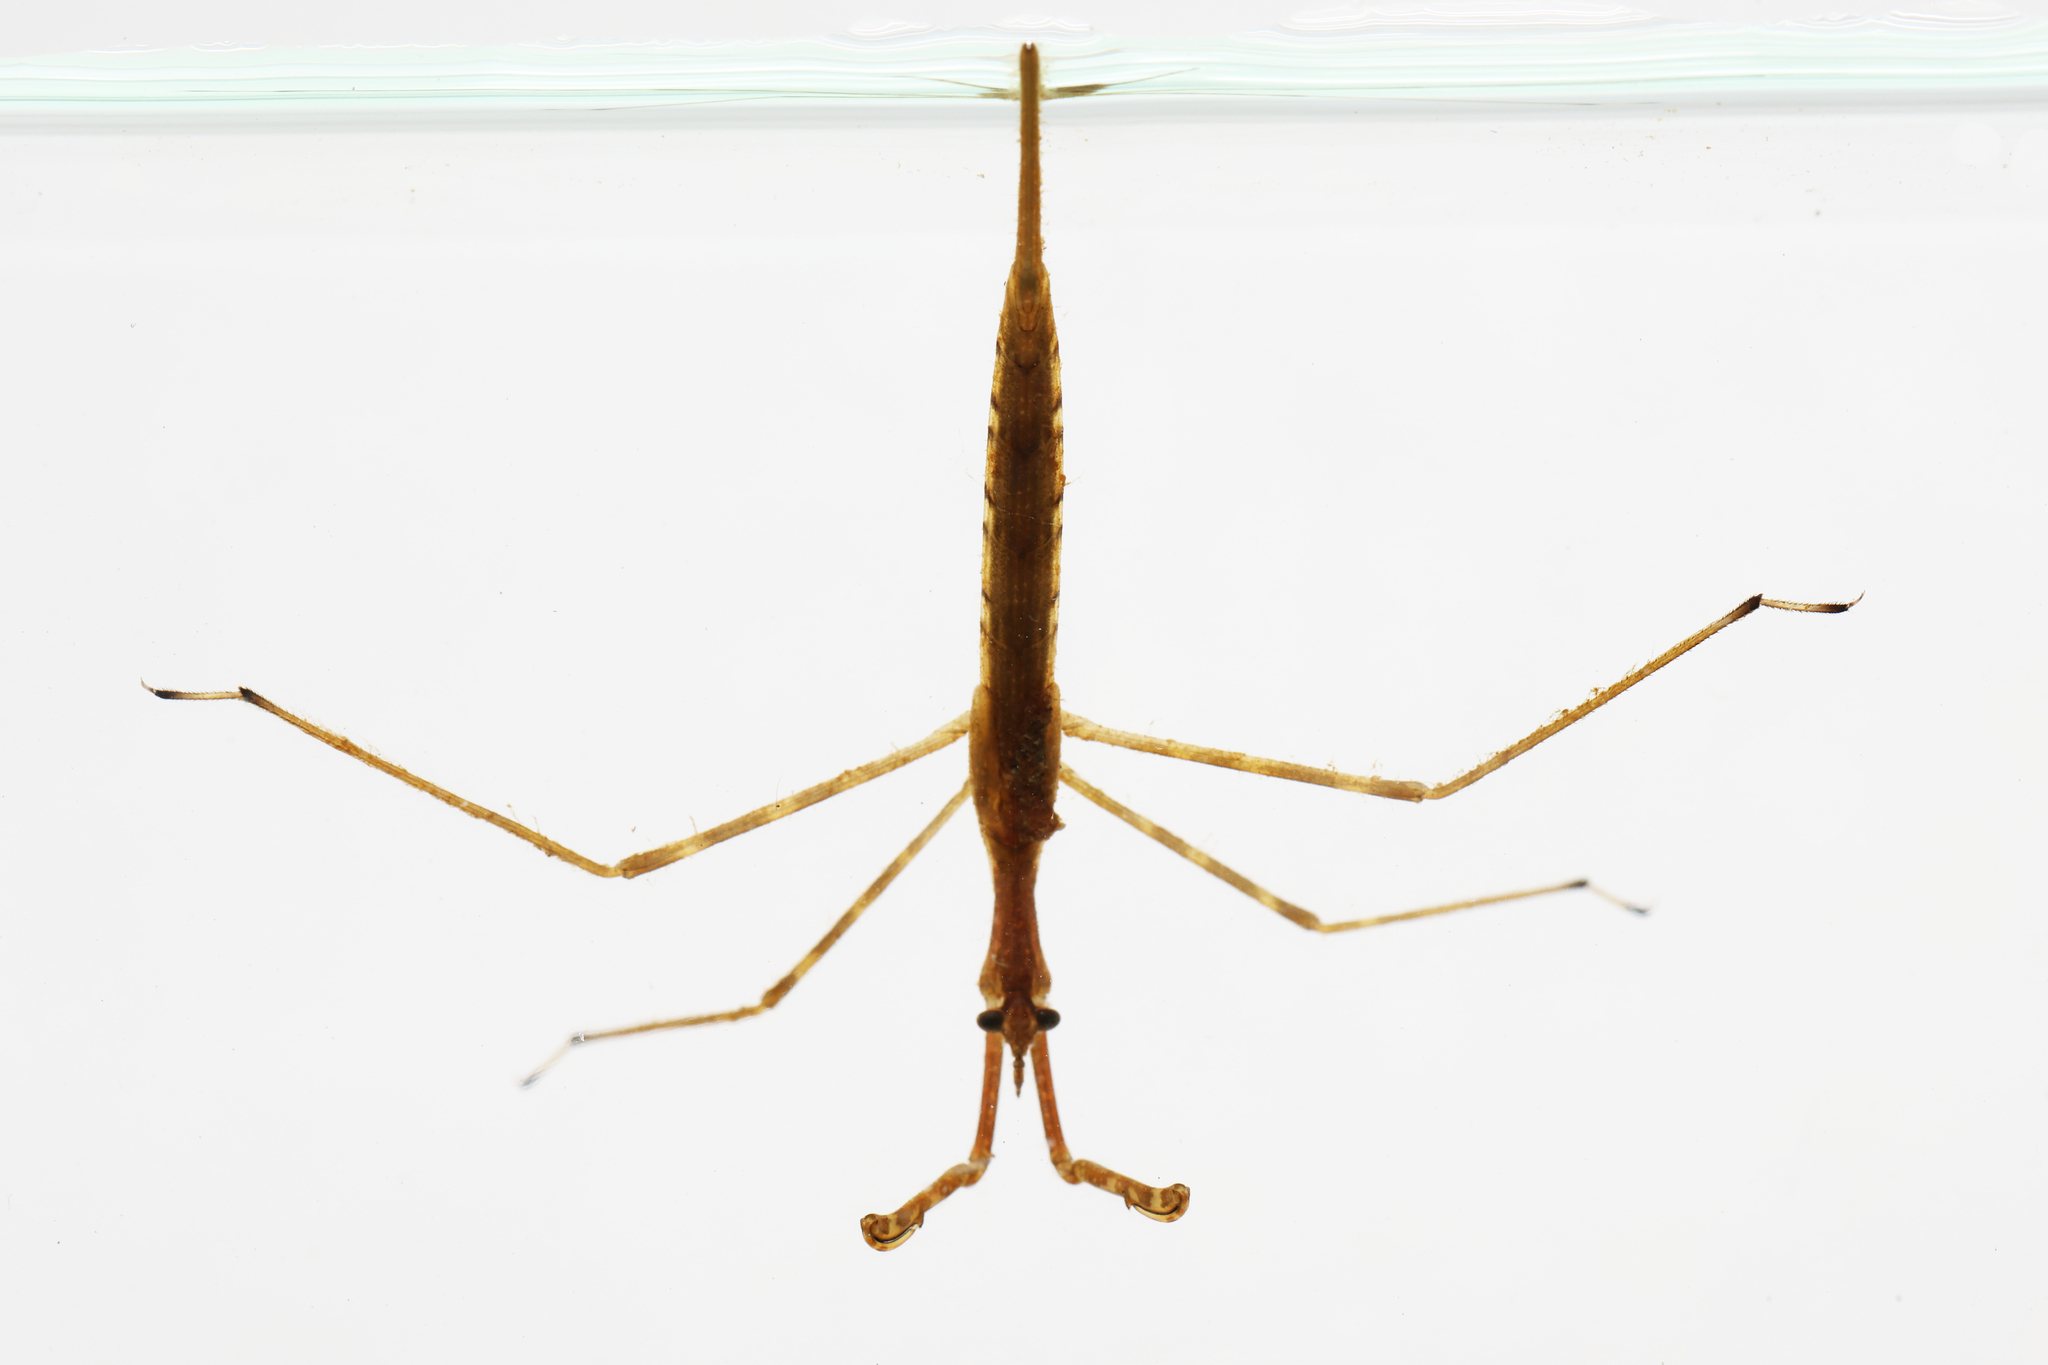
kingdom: Animalia
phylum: Arthropoda
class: Insecta
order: Hemiptera
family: Nepidae
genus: Ranatra
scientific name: Ranatra
